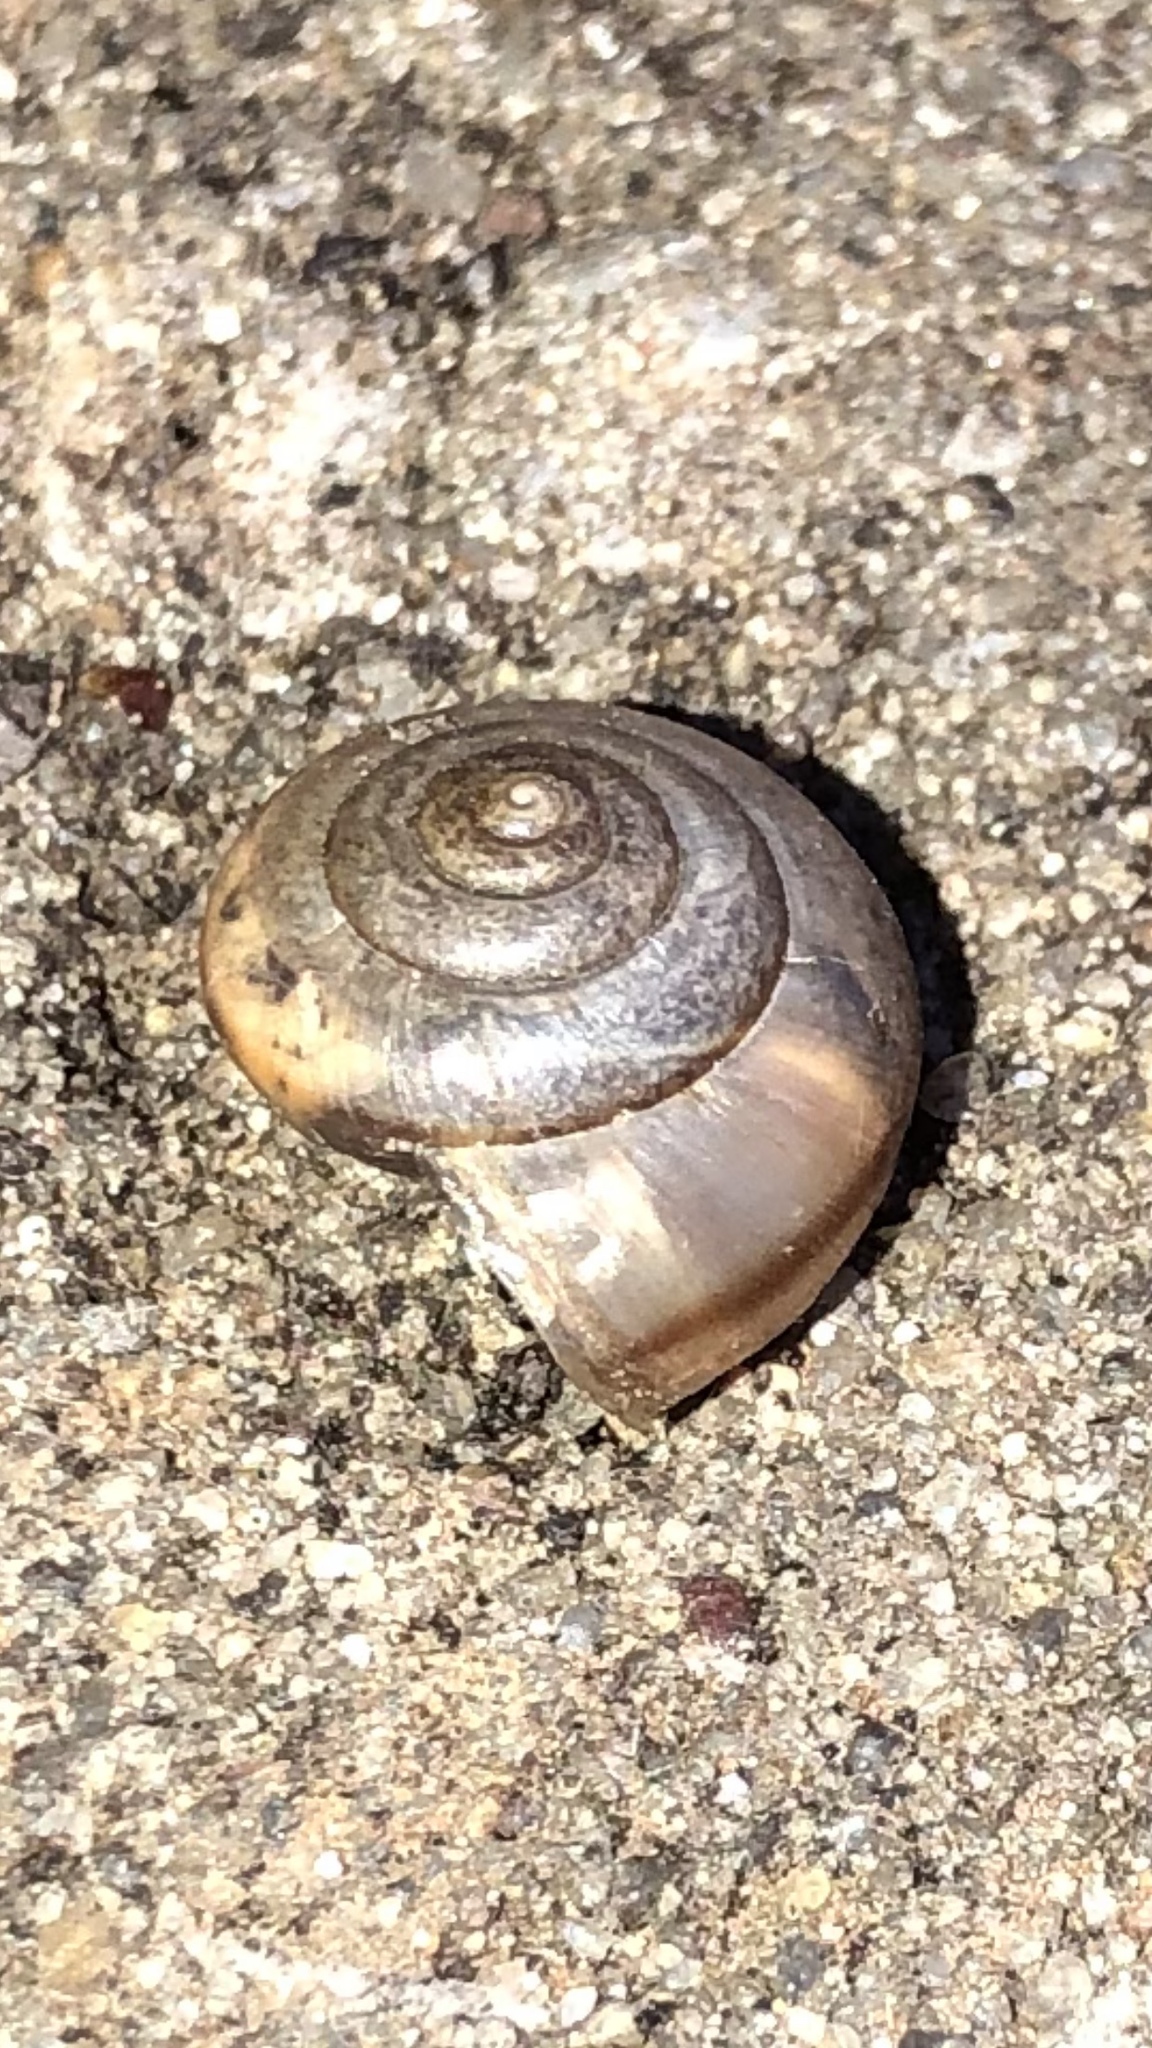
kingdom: Animalia
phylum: Mollusca
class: Gastropoda
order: Stylommatophora
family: Camaenidae
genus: Bradybaena
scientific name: Bradybaena similaris
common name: Asian trampsnail
